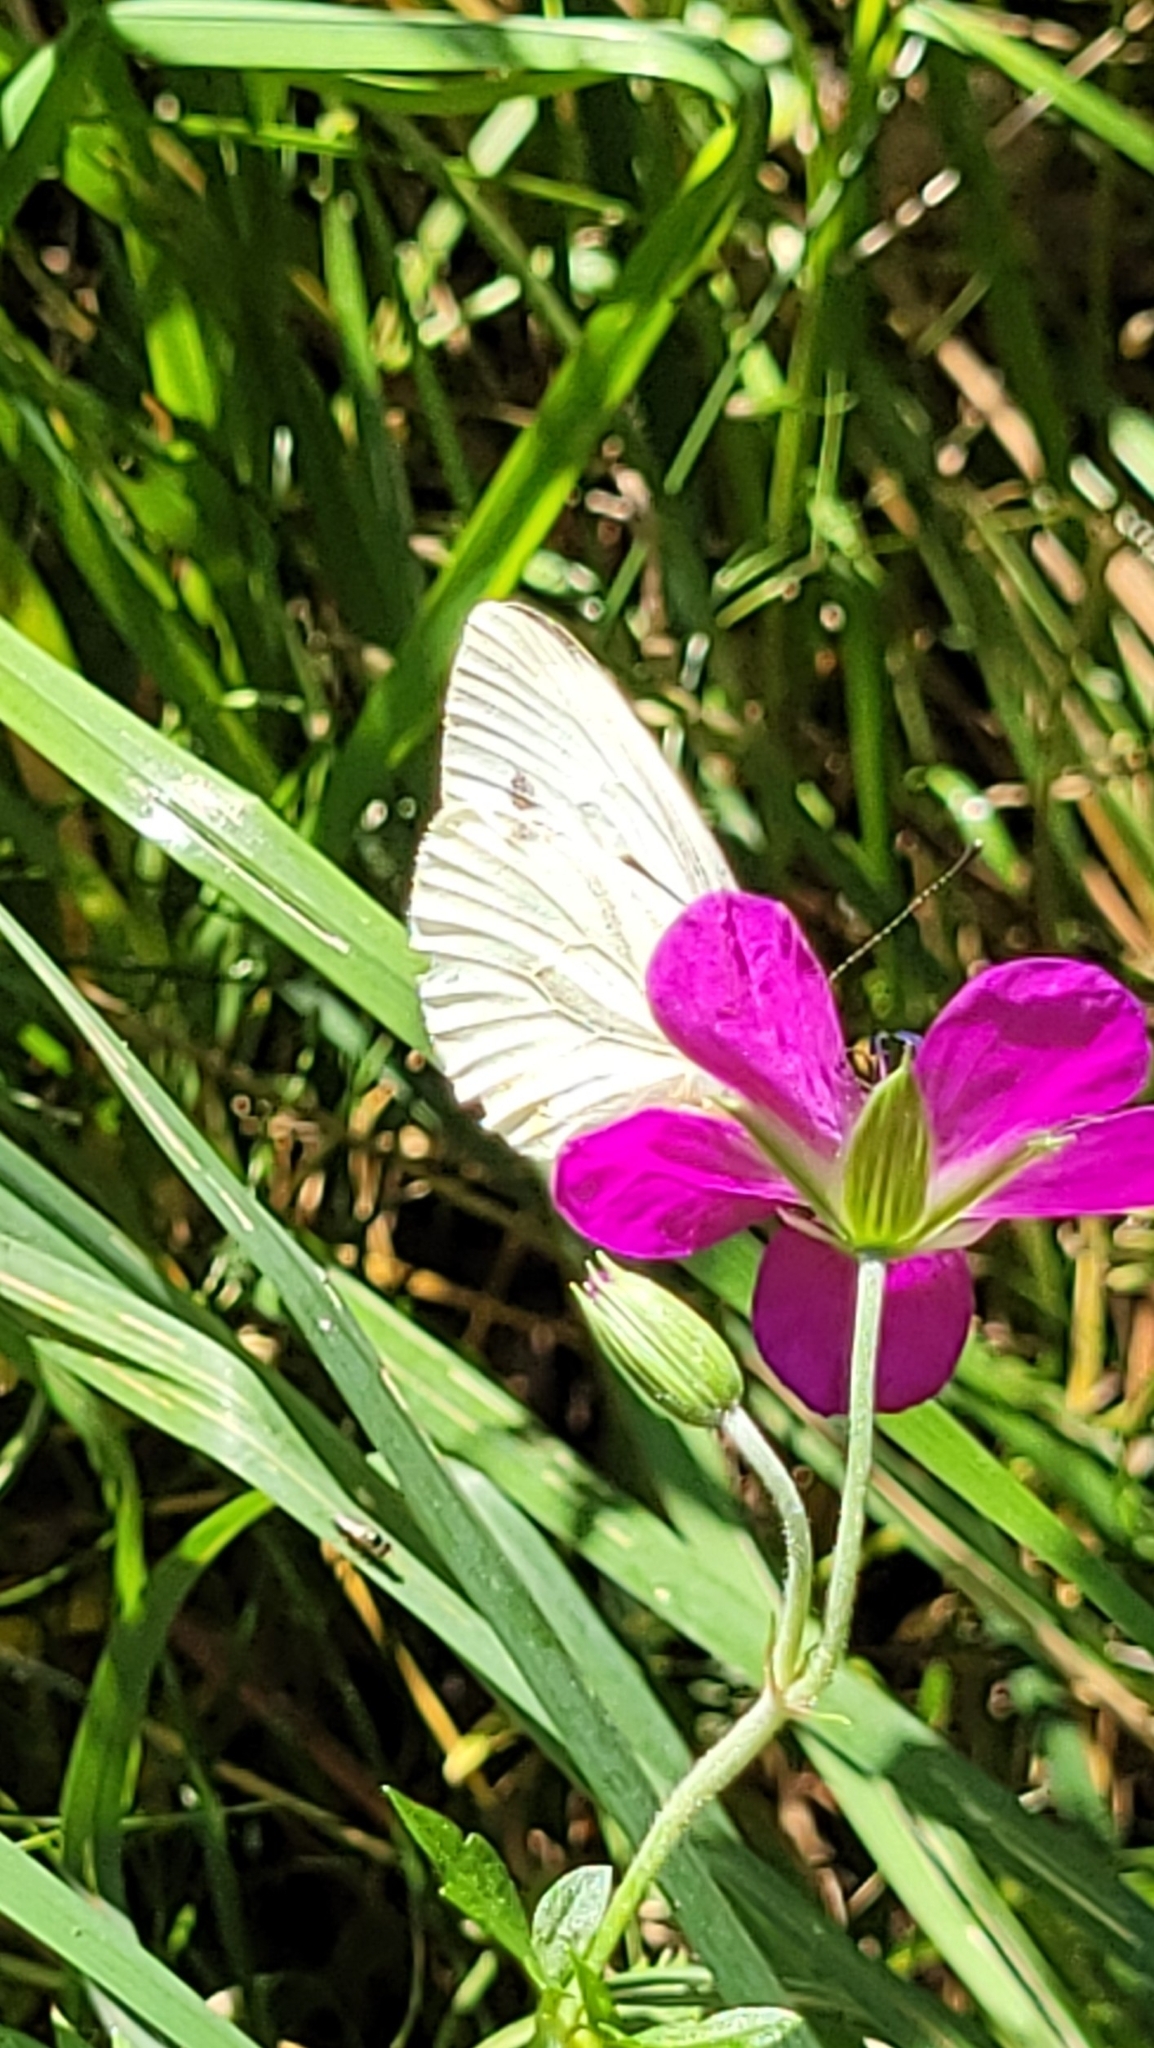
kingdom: Animalia
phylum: Arthropoda
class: Insecta
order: Lepidoptera
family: Pieridae
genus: Pieris
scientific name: Pieris napi
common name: Green-veined white
